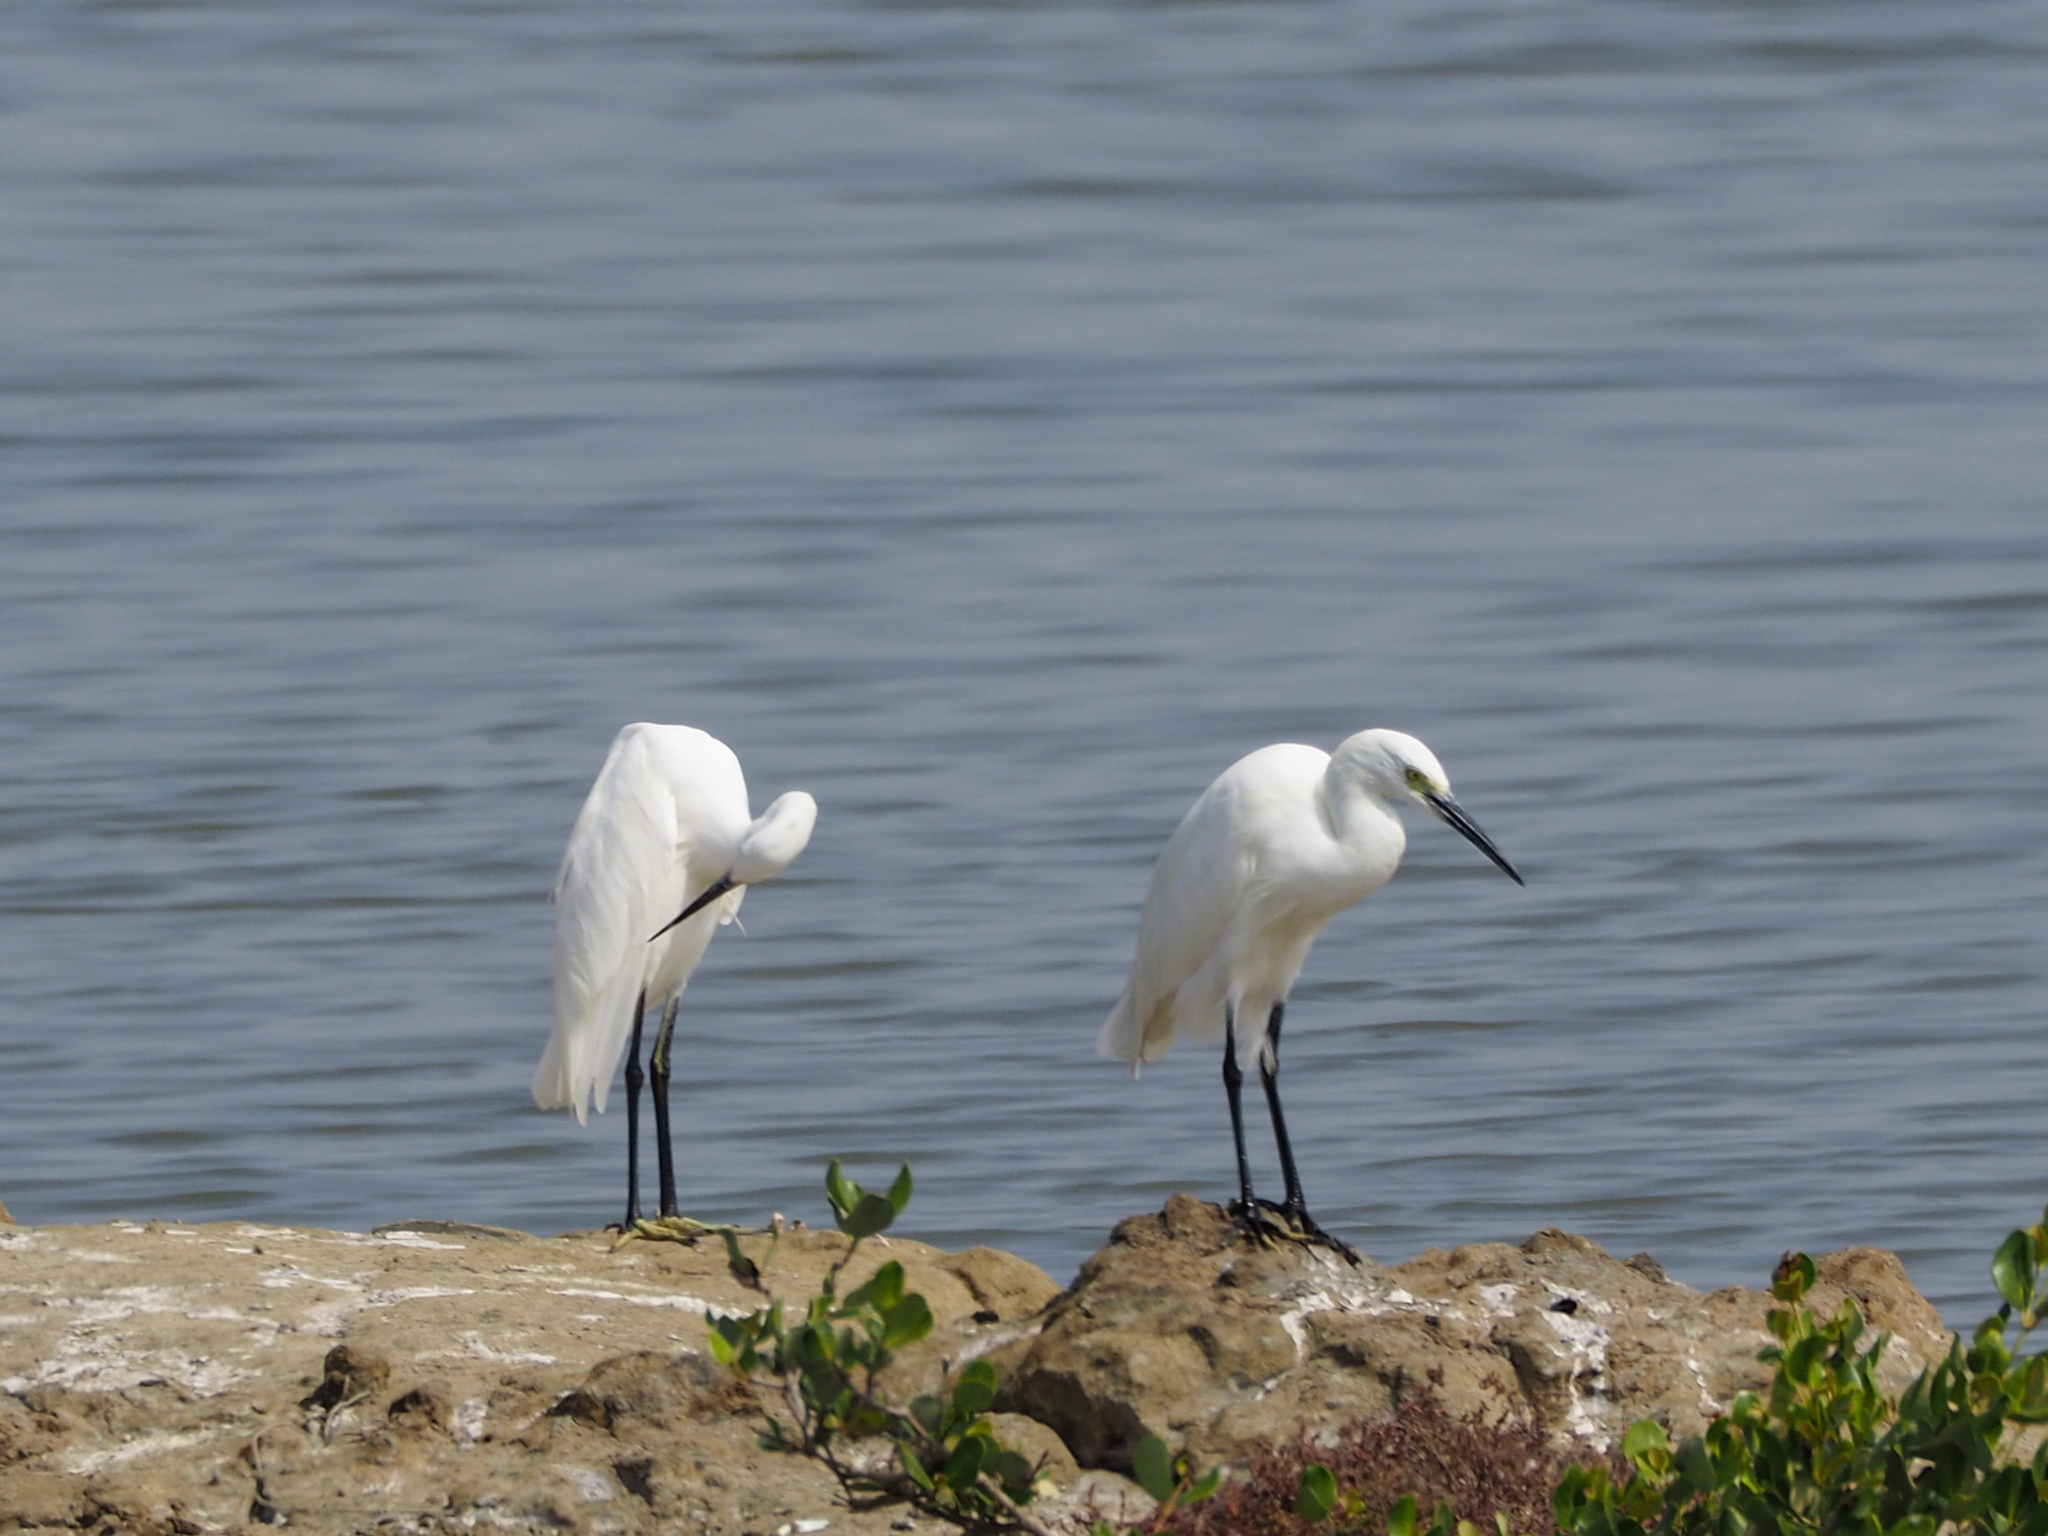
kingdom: Animalia
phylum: Chordata
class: Aves
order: Pelecaniformes
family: Ardeidae
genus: Egretta
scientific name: Egretta garzetta
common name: Little egret
